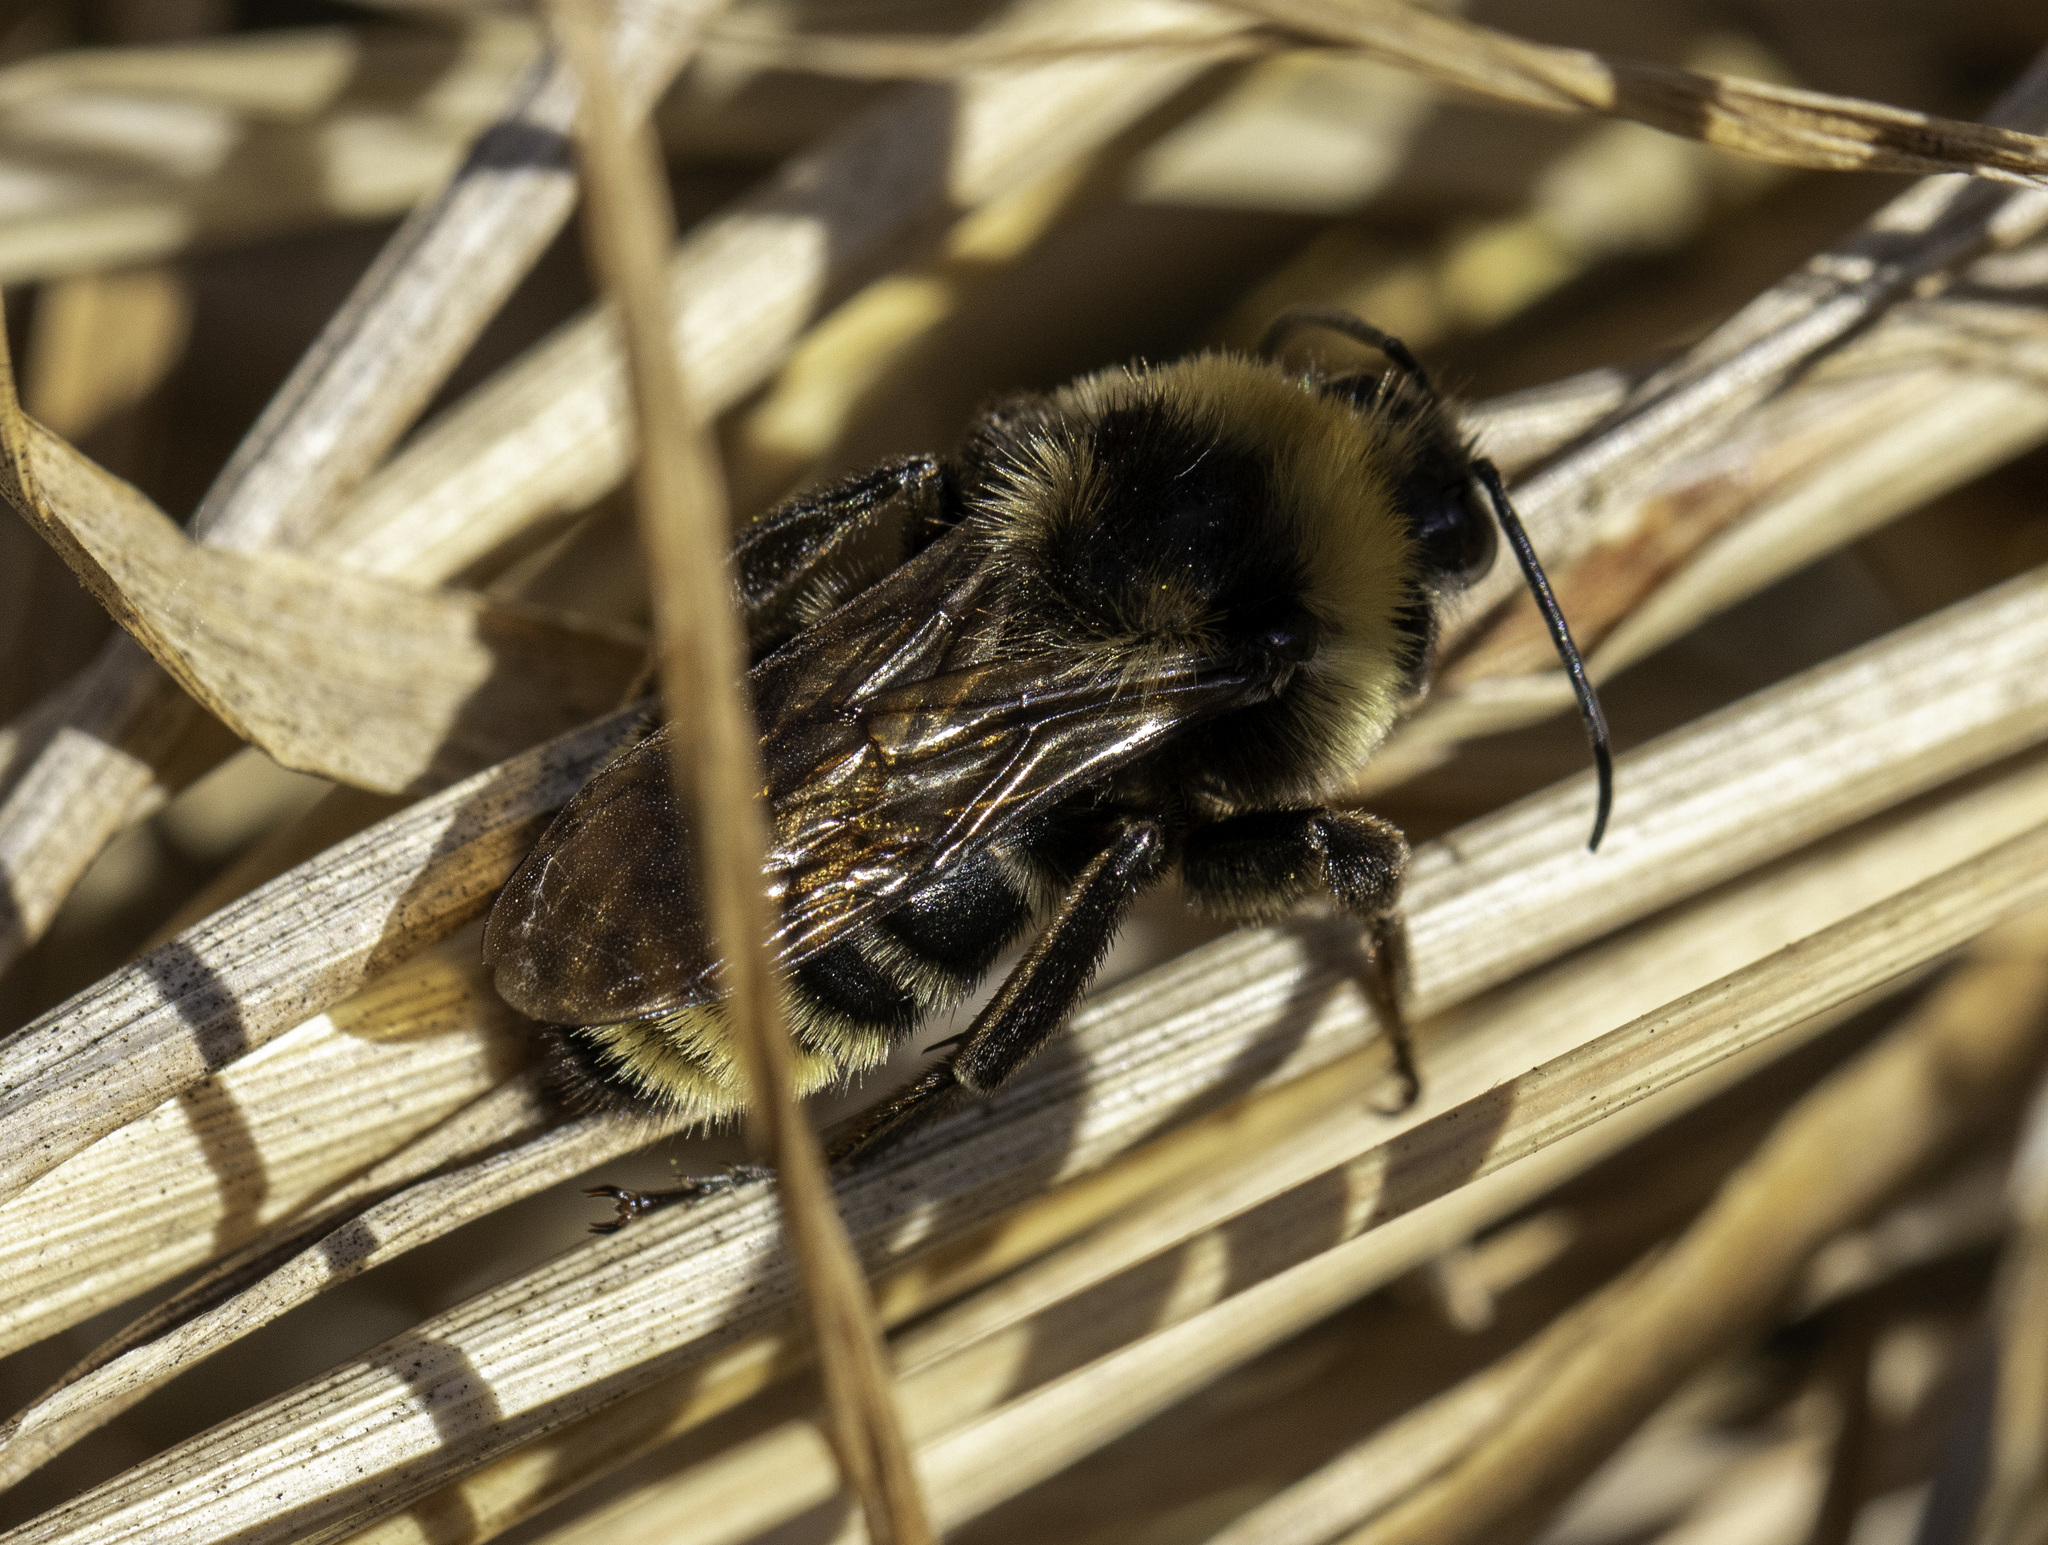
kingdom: Animalia
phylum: Arthropoda
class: Insecta
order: Hymenoptera
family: Apidae
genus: Bombus
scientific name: Bombus californicus
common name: California bumble bee
